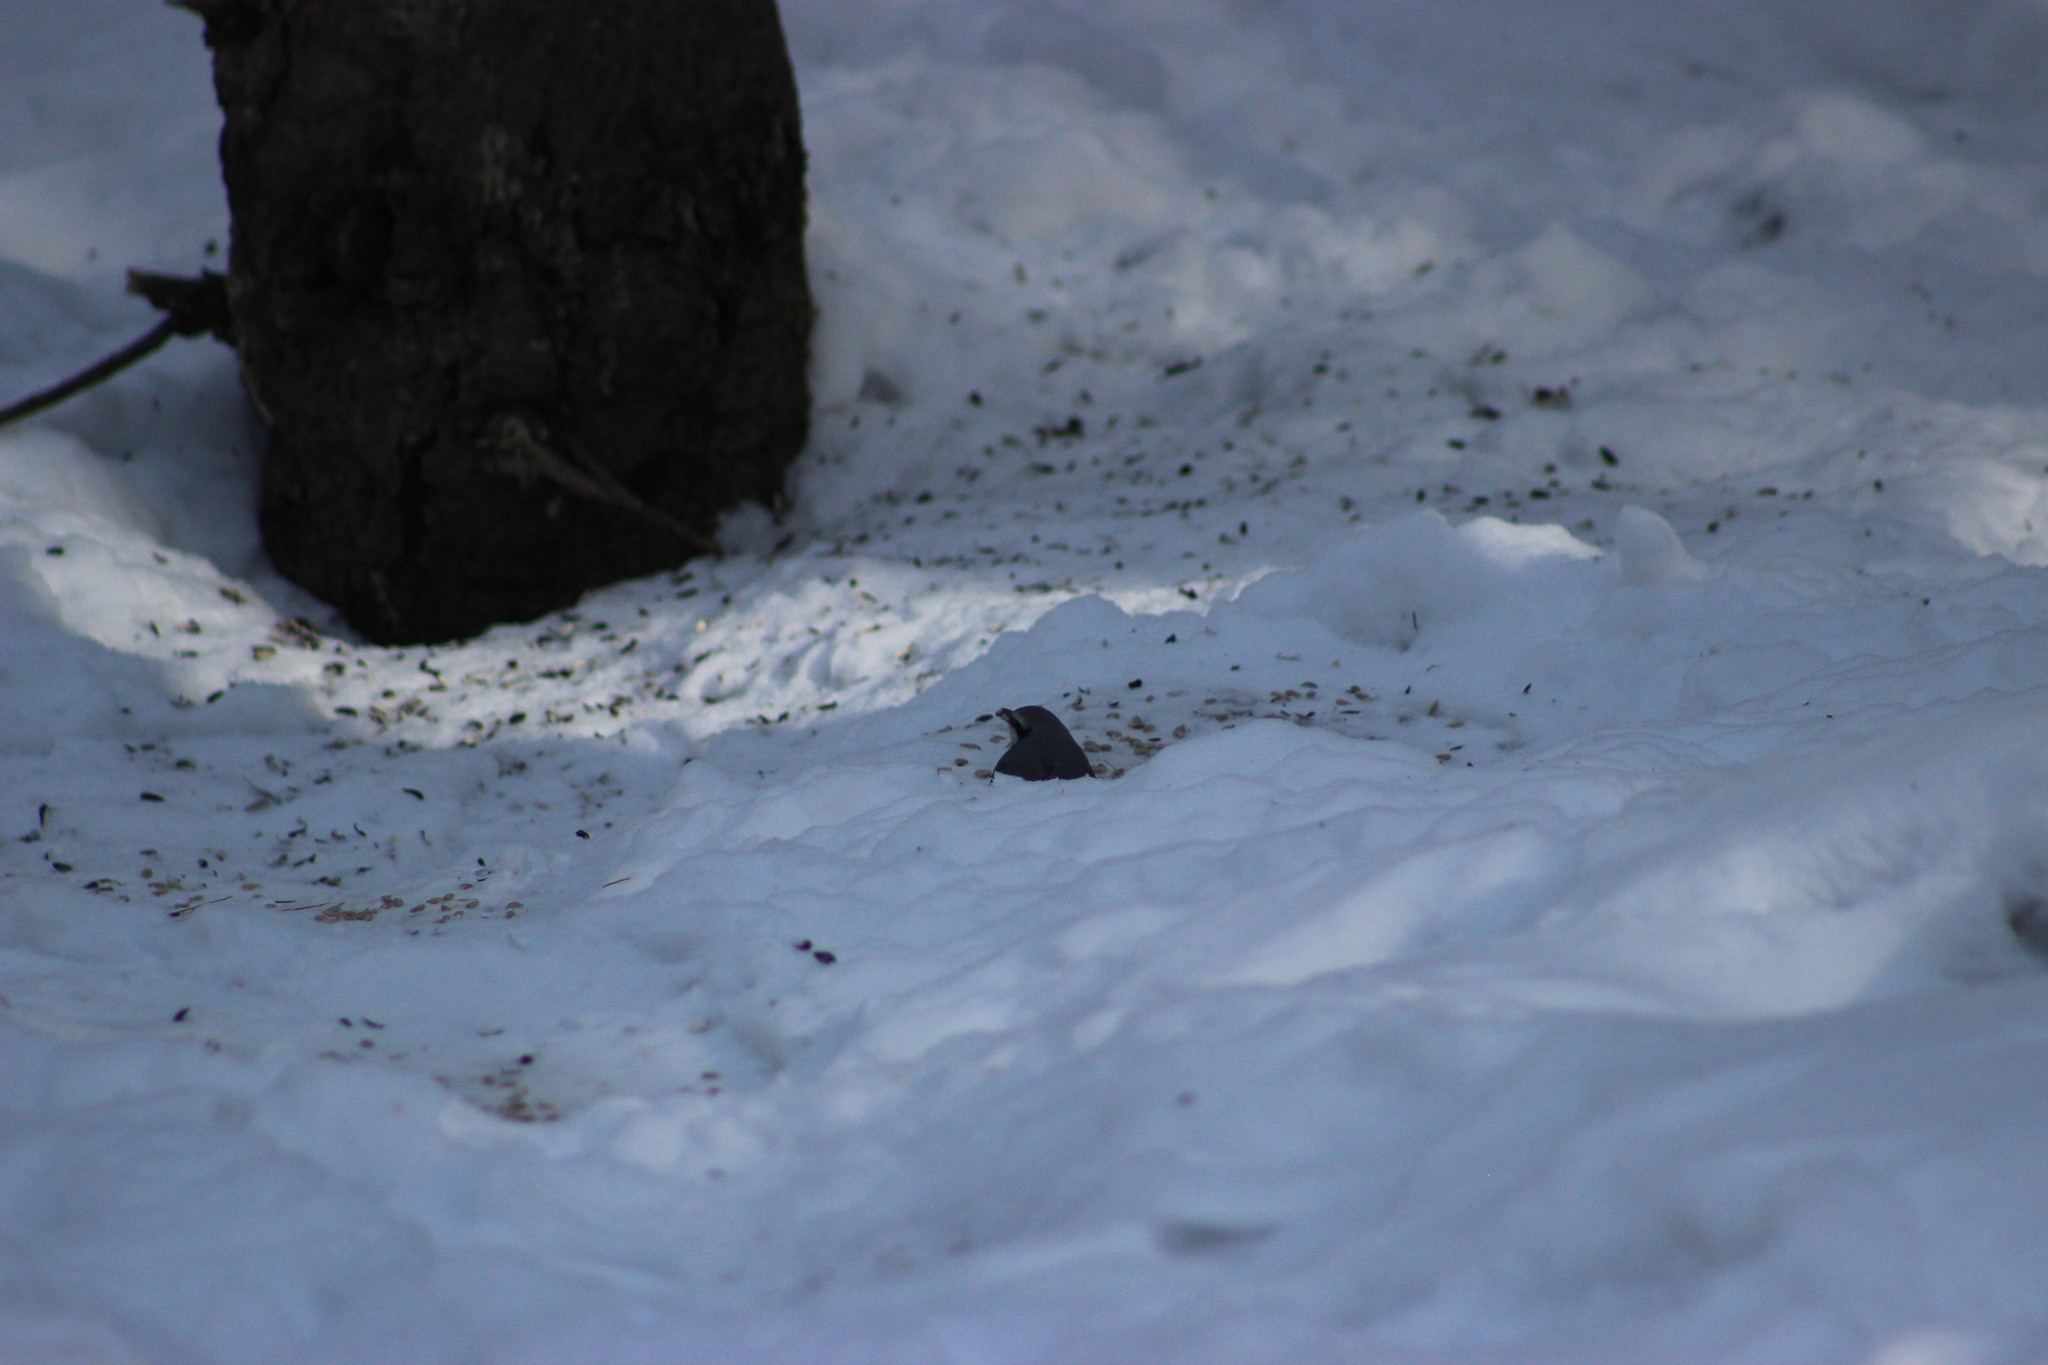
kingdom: Animalia
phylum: Chordata
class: Aves
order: Passeriformes
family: Sittidae
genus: Sitta
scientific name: Sitta europaea
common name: Eurasian nuthatch
